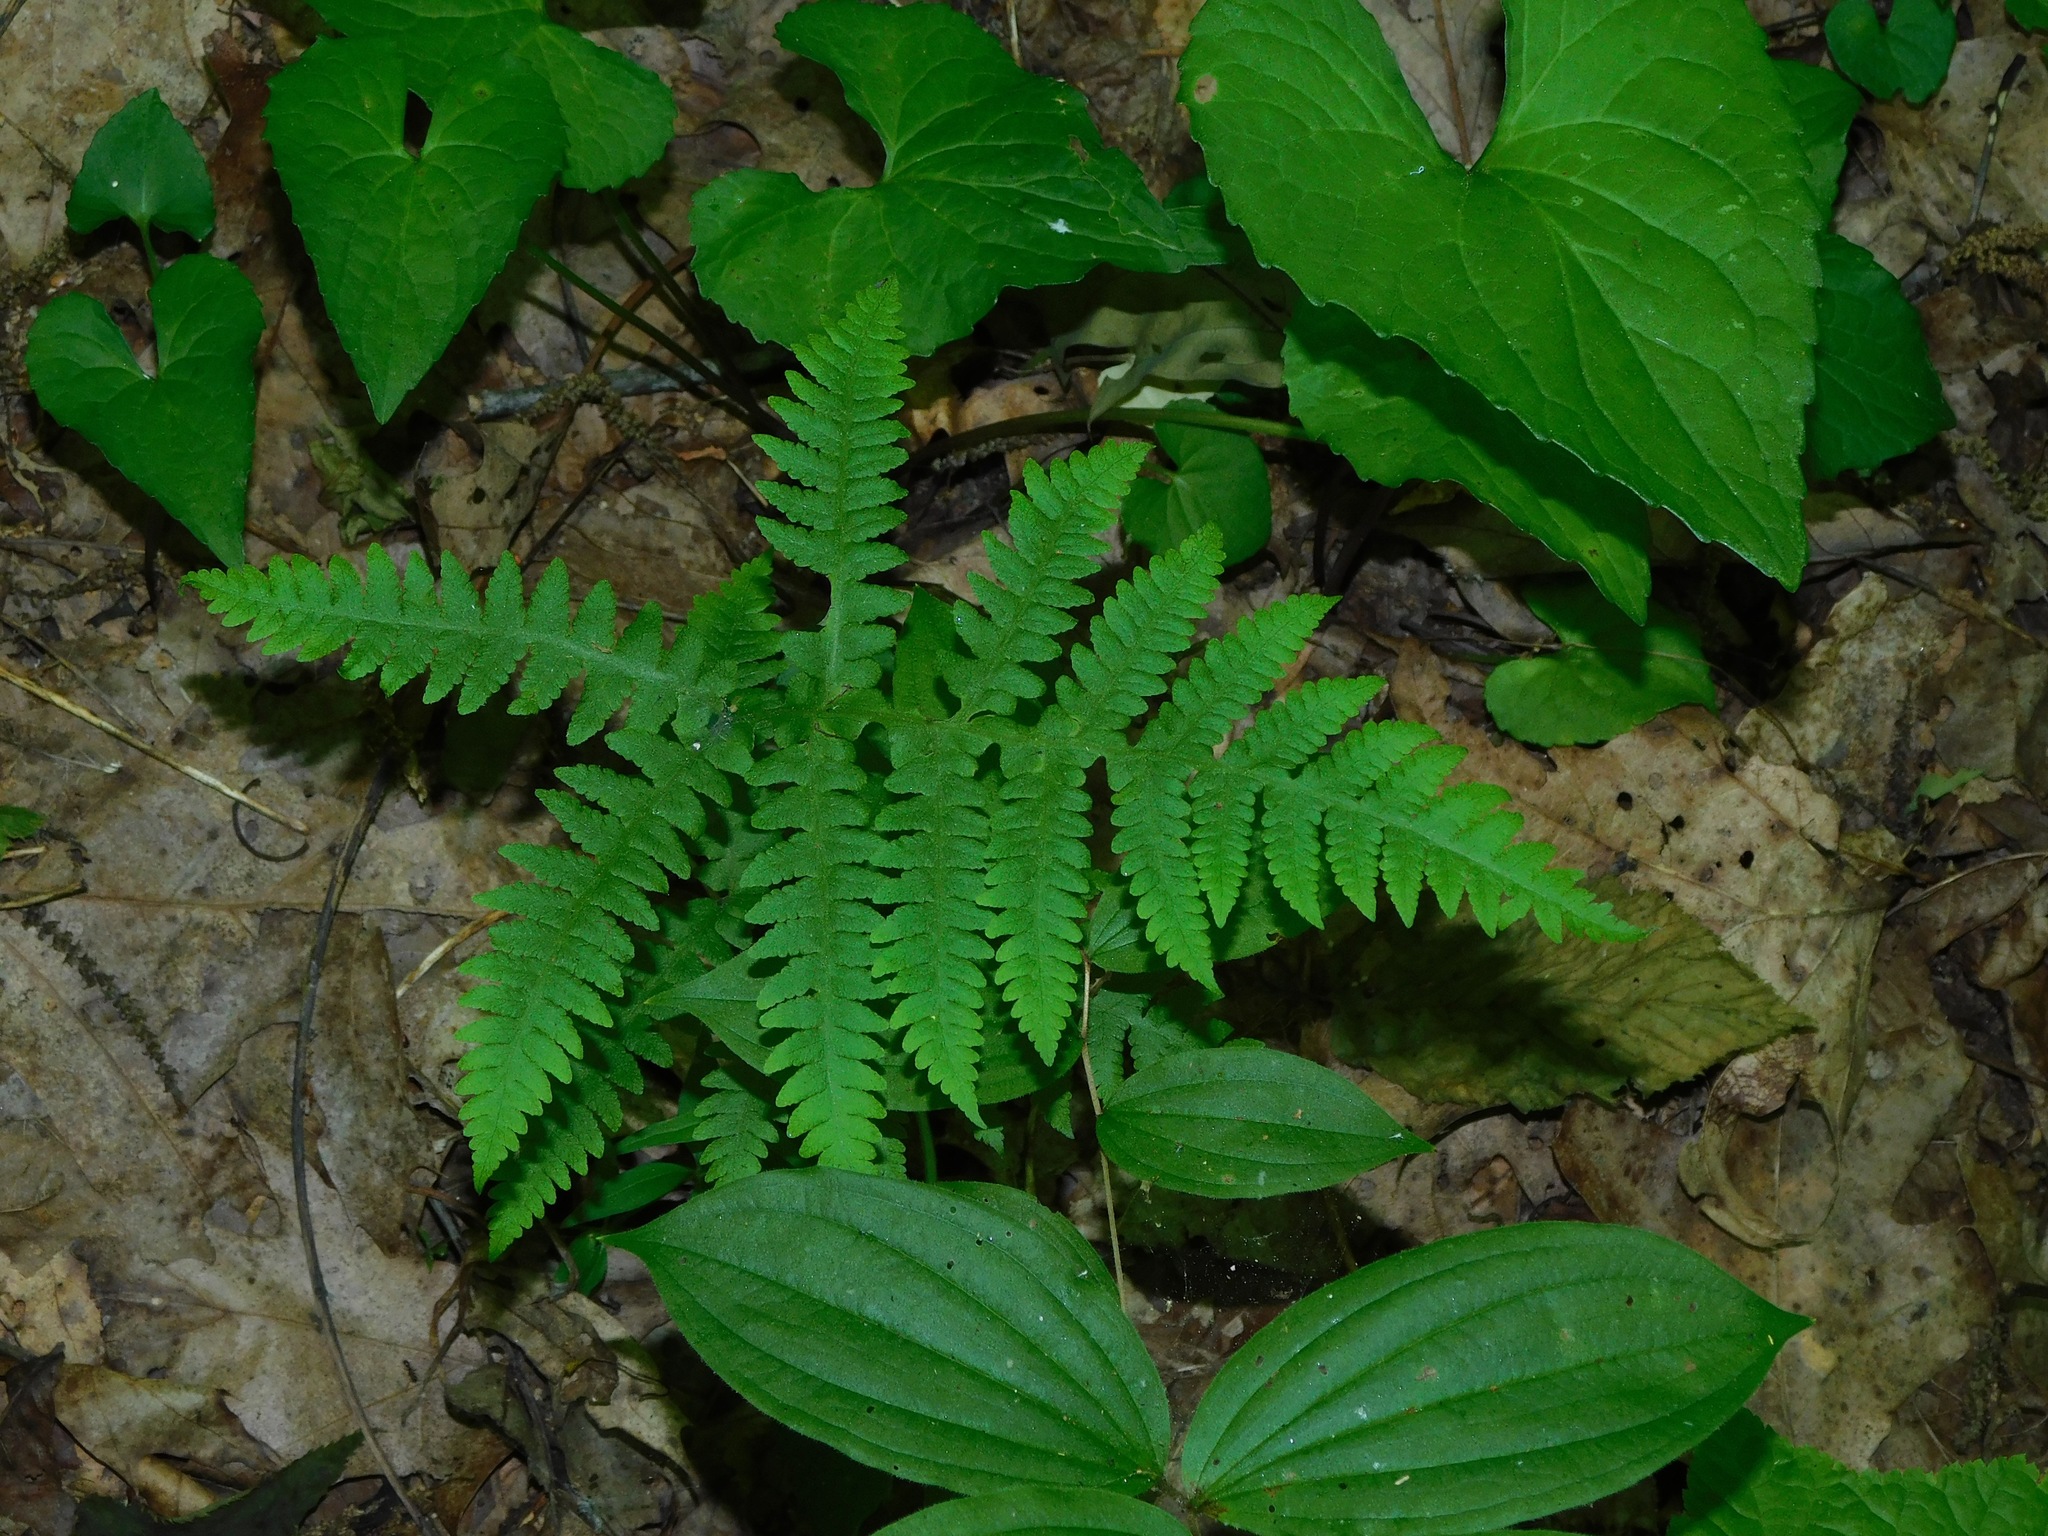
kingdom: Plantae
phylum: Tracheophyta
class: Polypodiopsida
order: Polypodiales
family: Thelypteridaceae
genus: Phegopteris
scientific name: Phegopteris hexagonoptera
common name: Broad beech fern
